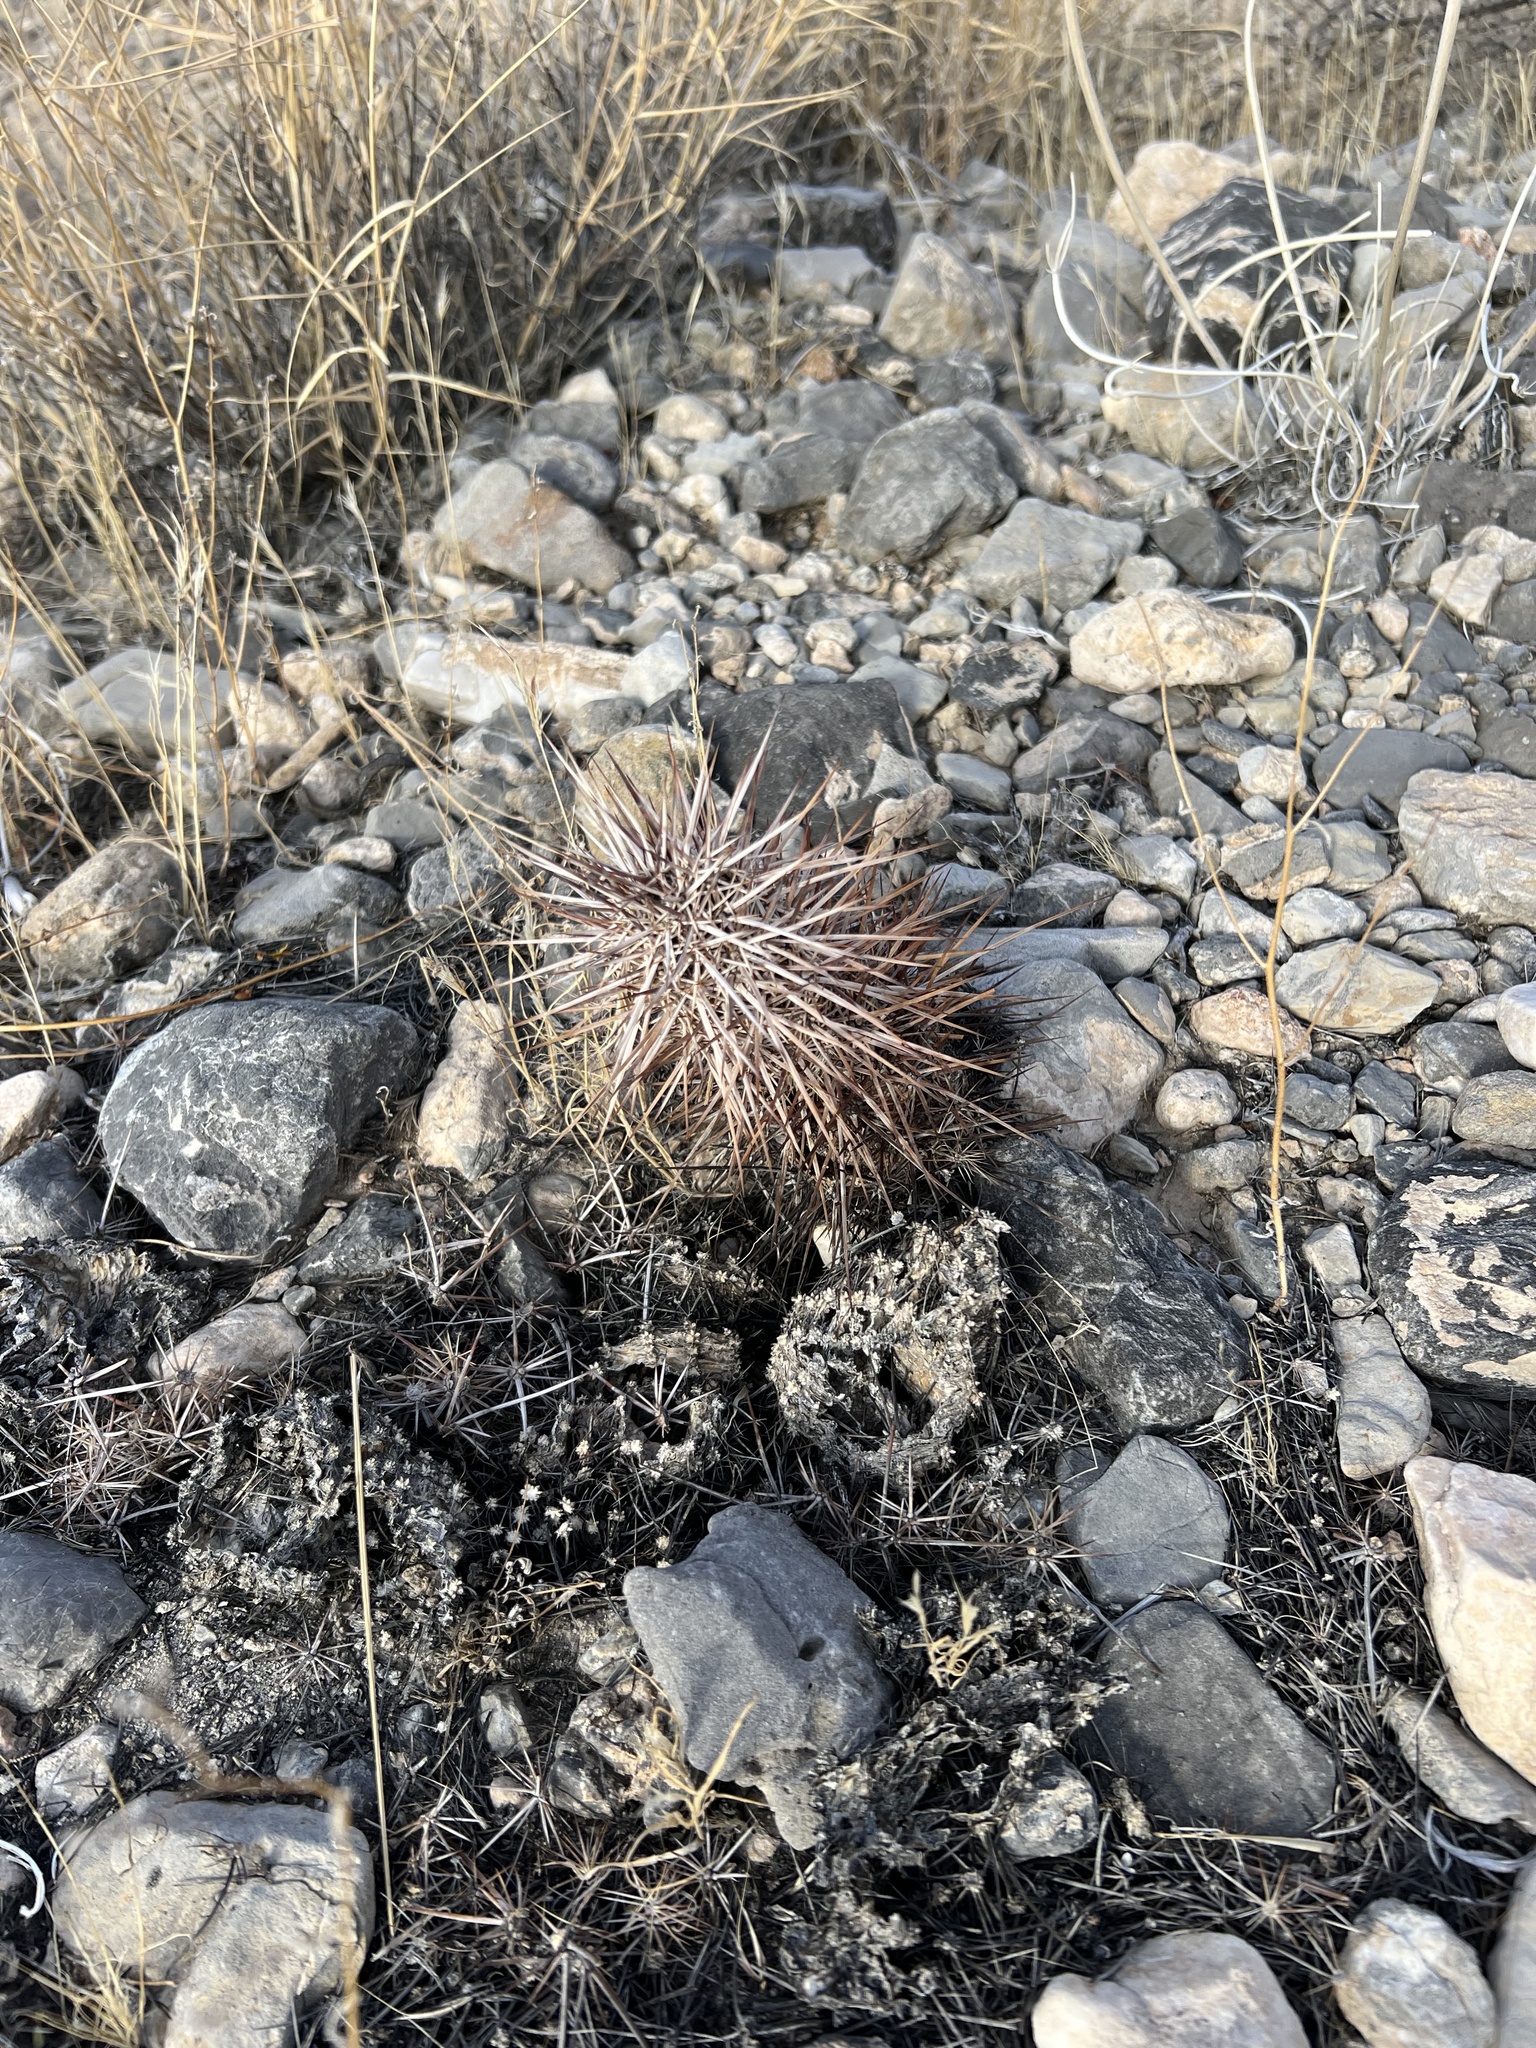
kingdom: Plantae
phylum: Tracheophyta
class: Magnoliopsida
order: Caryophyllales
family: Cactaceae
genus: Echinocereus
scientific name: Echinocereus engelmannii
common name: Engelmann's hedgehog cactus
